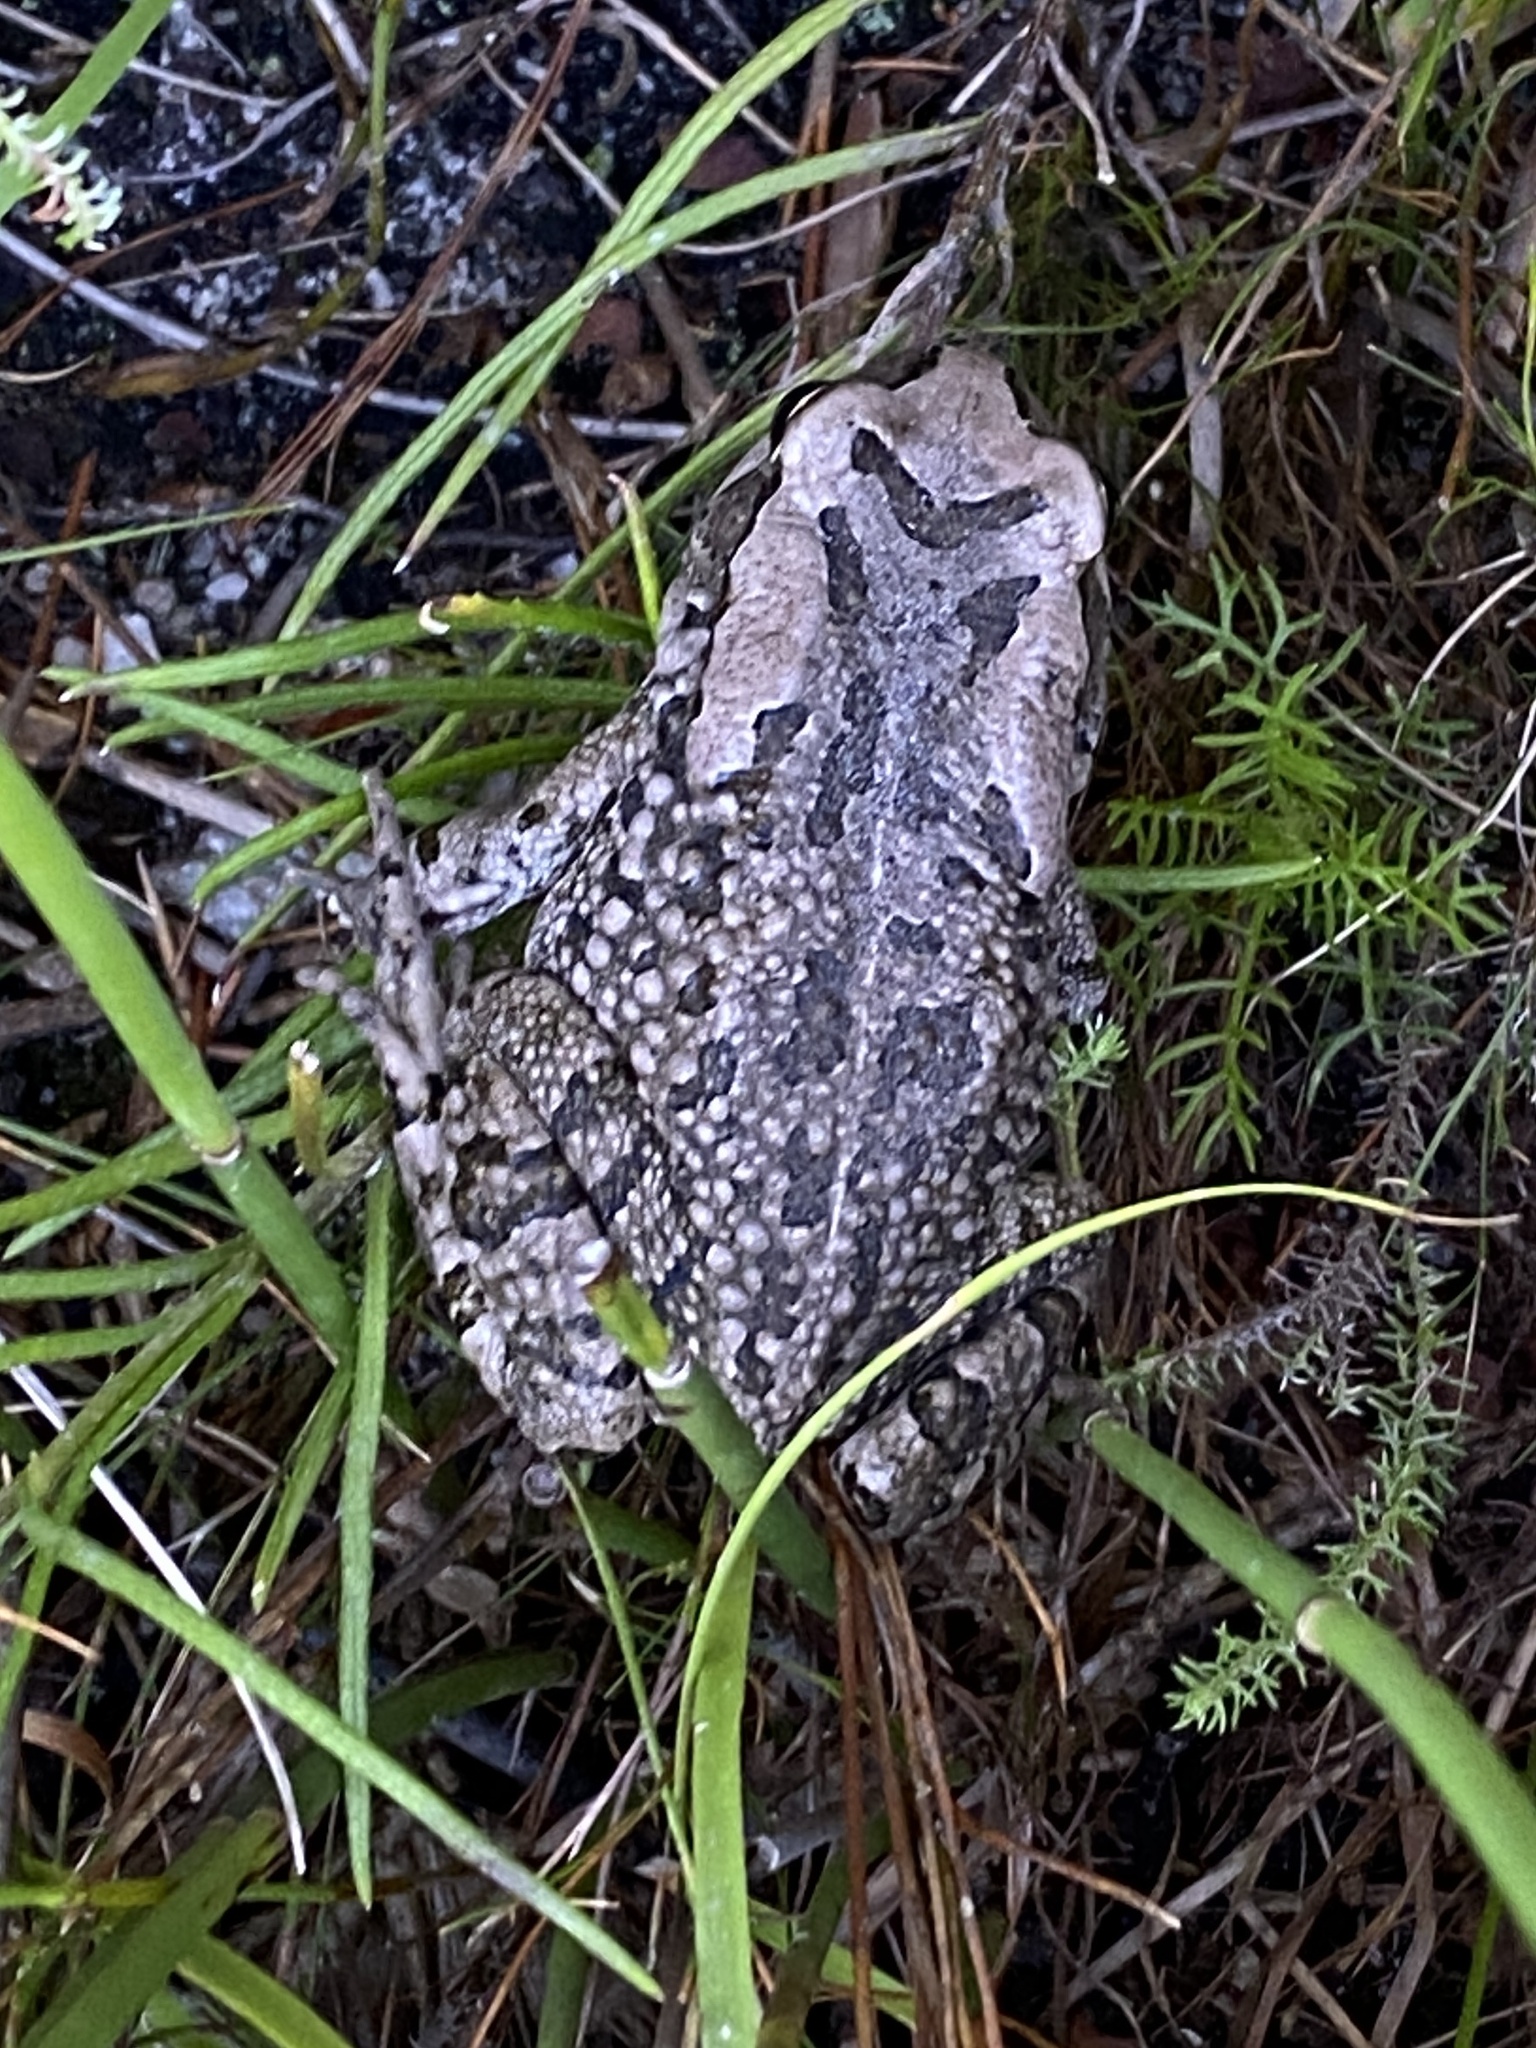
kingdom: Animalia
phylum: Chordata
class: Amphibia
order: Anura
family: Bufonidae
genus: Sclerophrys
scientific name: Sclerophrys capensis
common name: Ranger’s toad
